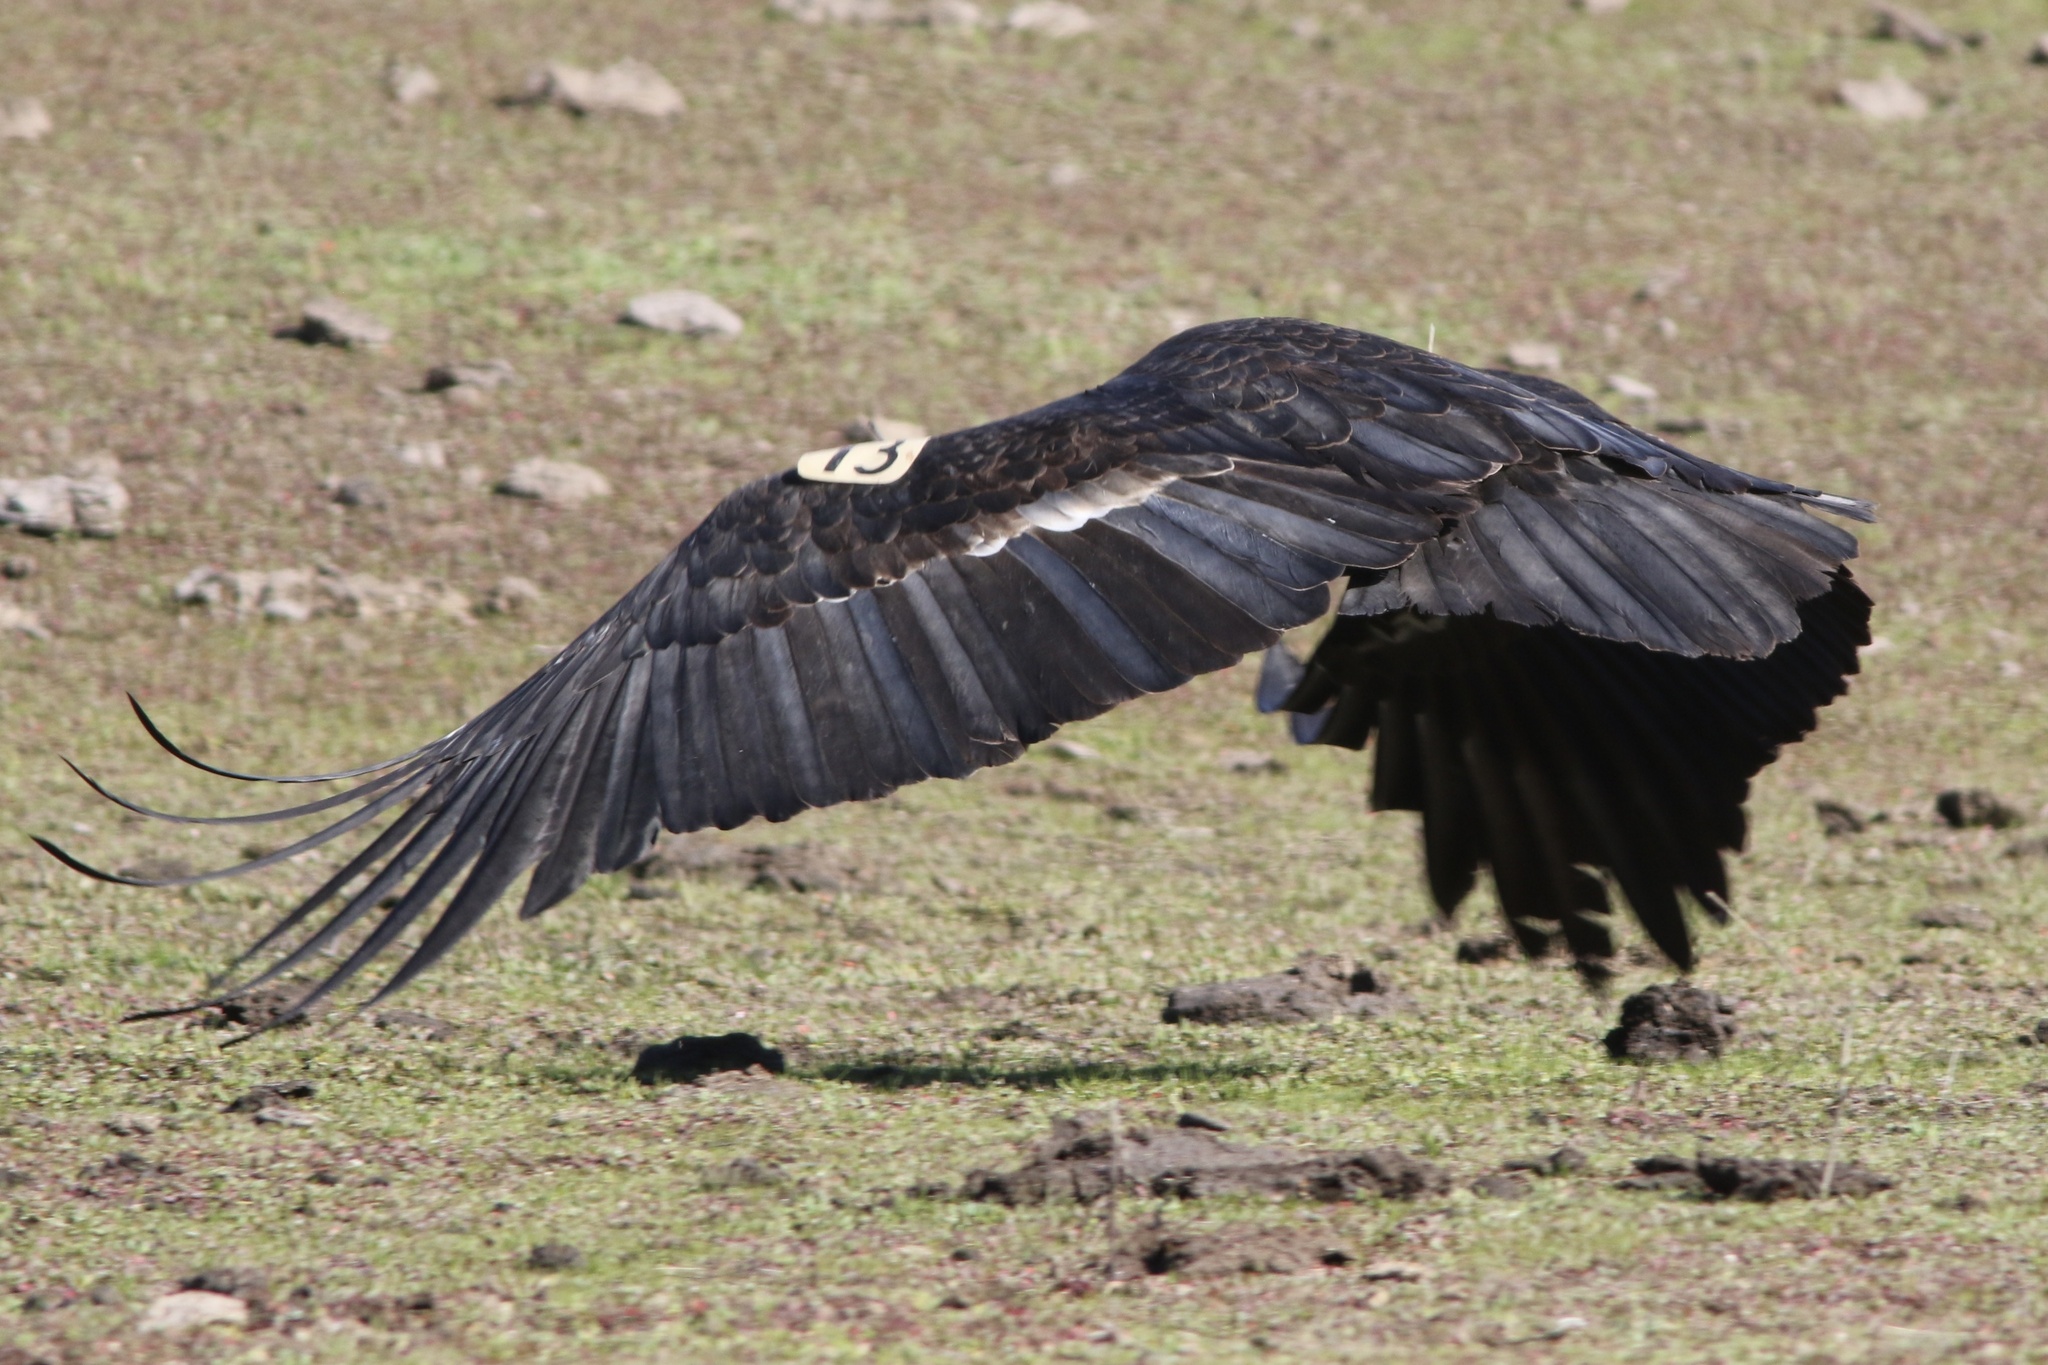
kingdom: Animalia
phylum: Chordata
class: Aves
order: Accipitriformes
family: Cathartidae
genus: Gymnogyps
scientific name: Gymnogyps californianus
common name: California condor
